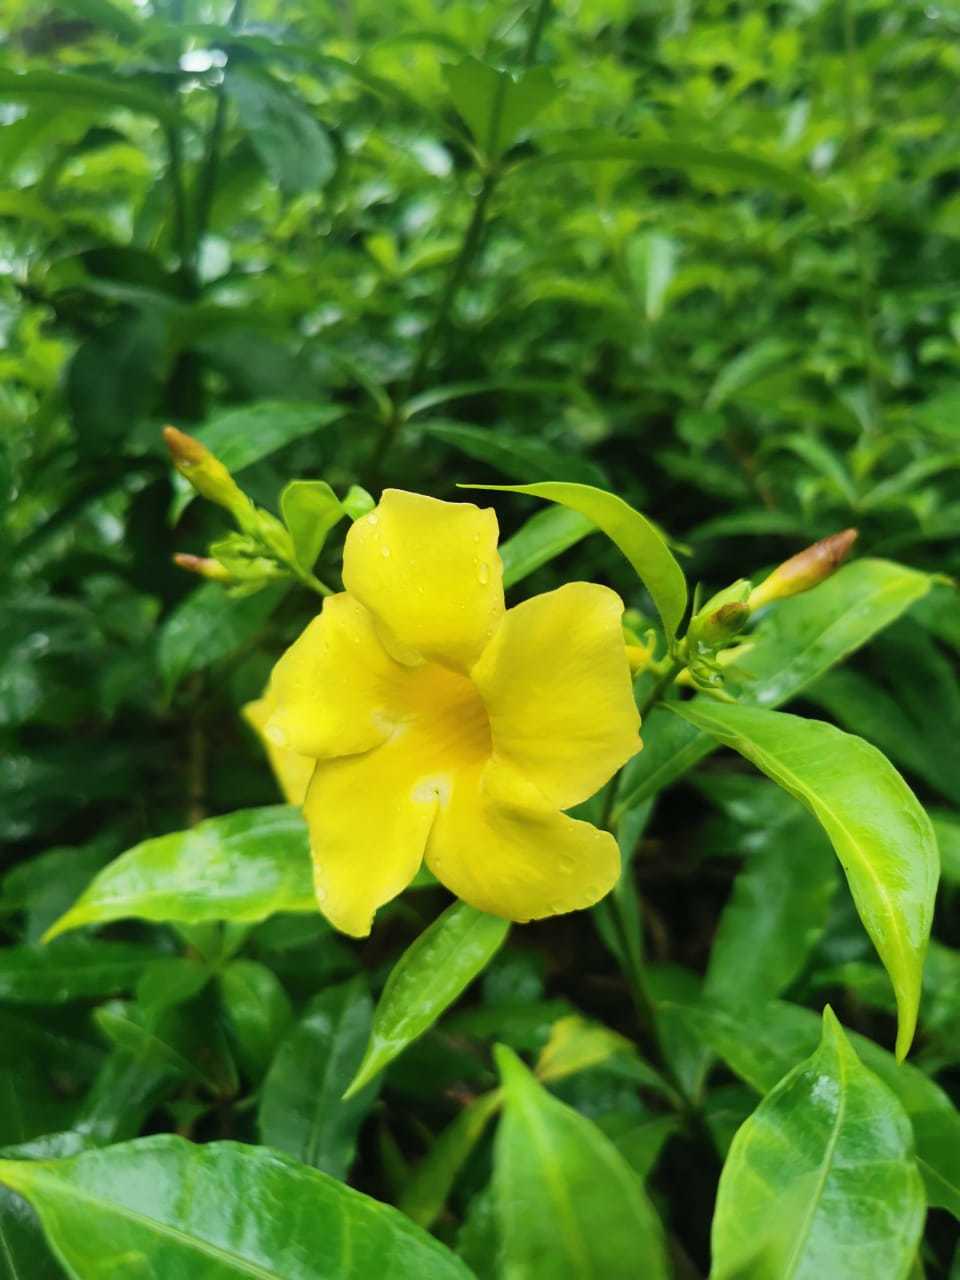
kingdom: Plantae
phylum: Tracheophyta
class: Magnoliopsida
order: Gentianales
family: Apocynaceae
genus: Allamanda
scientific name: Allamanda cathartica
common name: Golden trumpet
